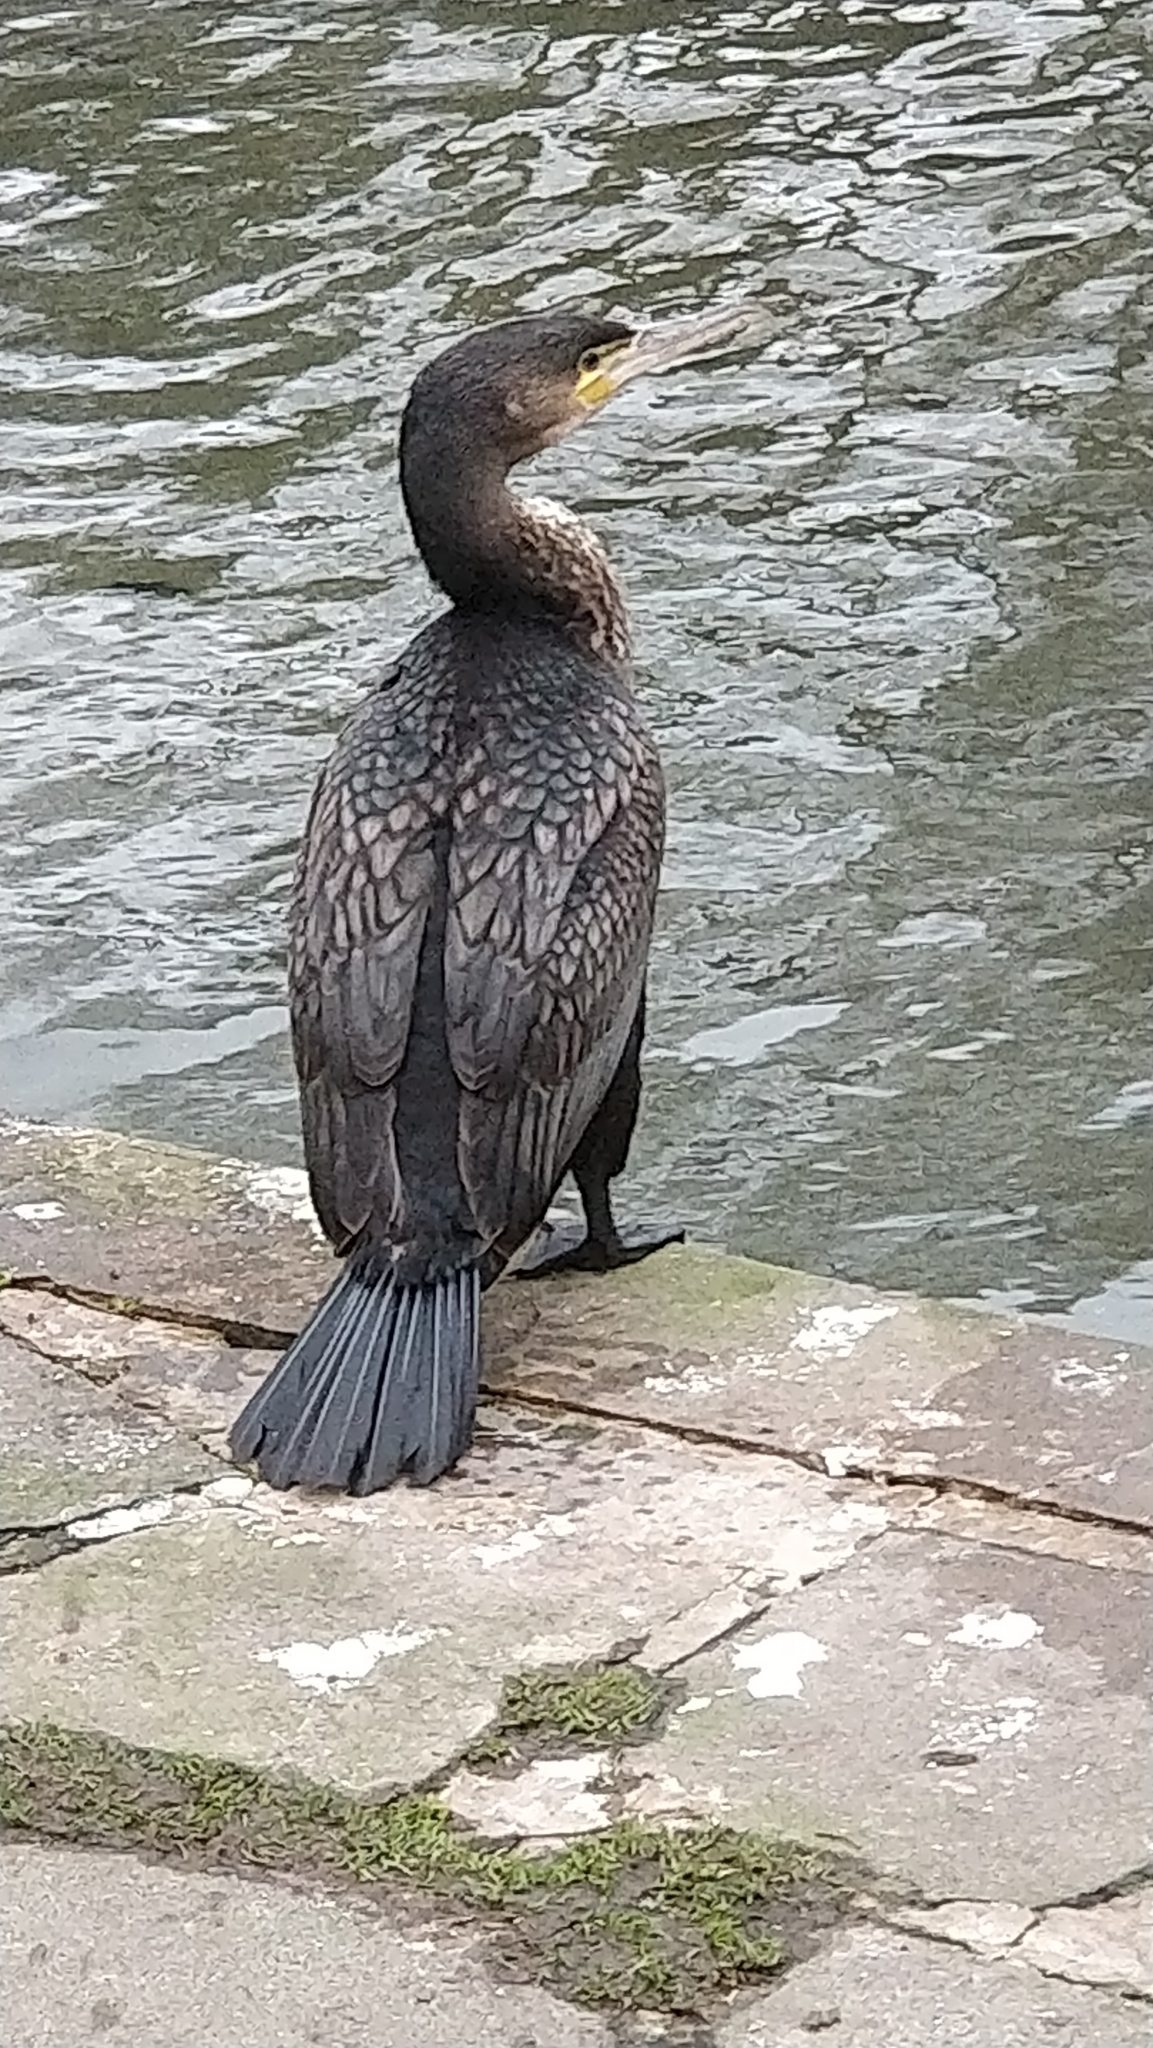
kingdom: Animalia
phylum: Chordata
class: Aves
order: Suliformes
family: Phalacrocoracidae
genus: Phalacrocorax
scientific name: Phalacrocorax carbo
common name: Great cormorant
